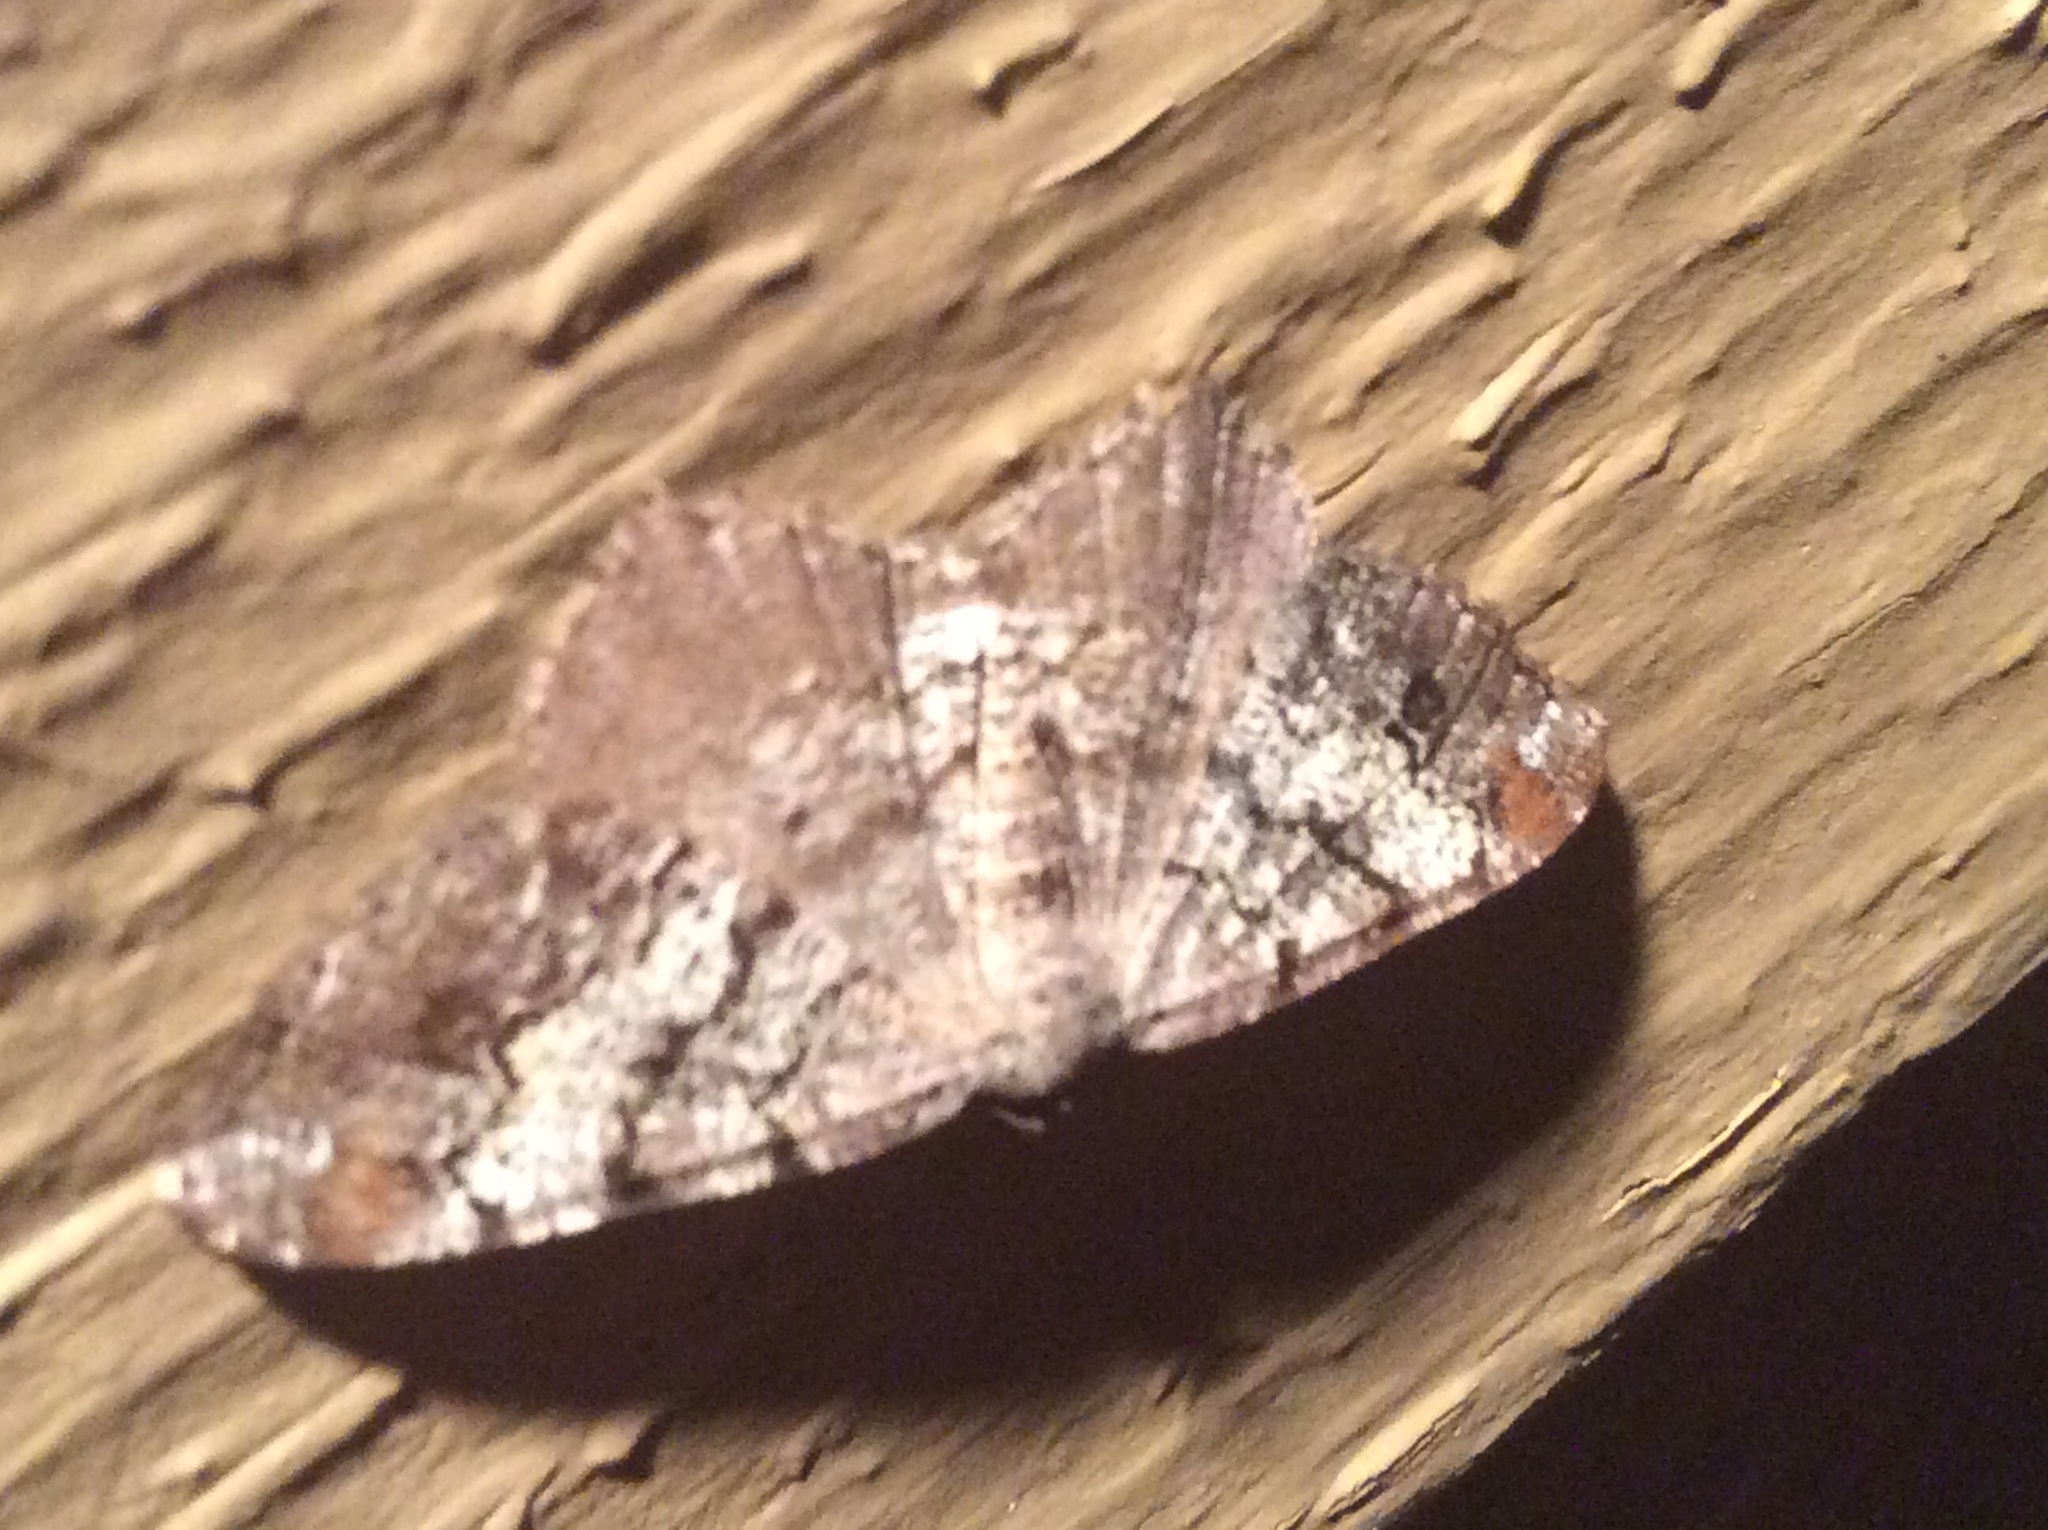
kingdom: Animalia
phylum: Arthropoda
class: Insecta
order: Lepidoptera
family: Geometridae
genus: Macaria
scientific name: Macaria granitata
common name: Granite moth
